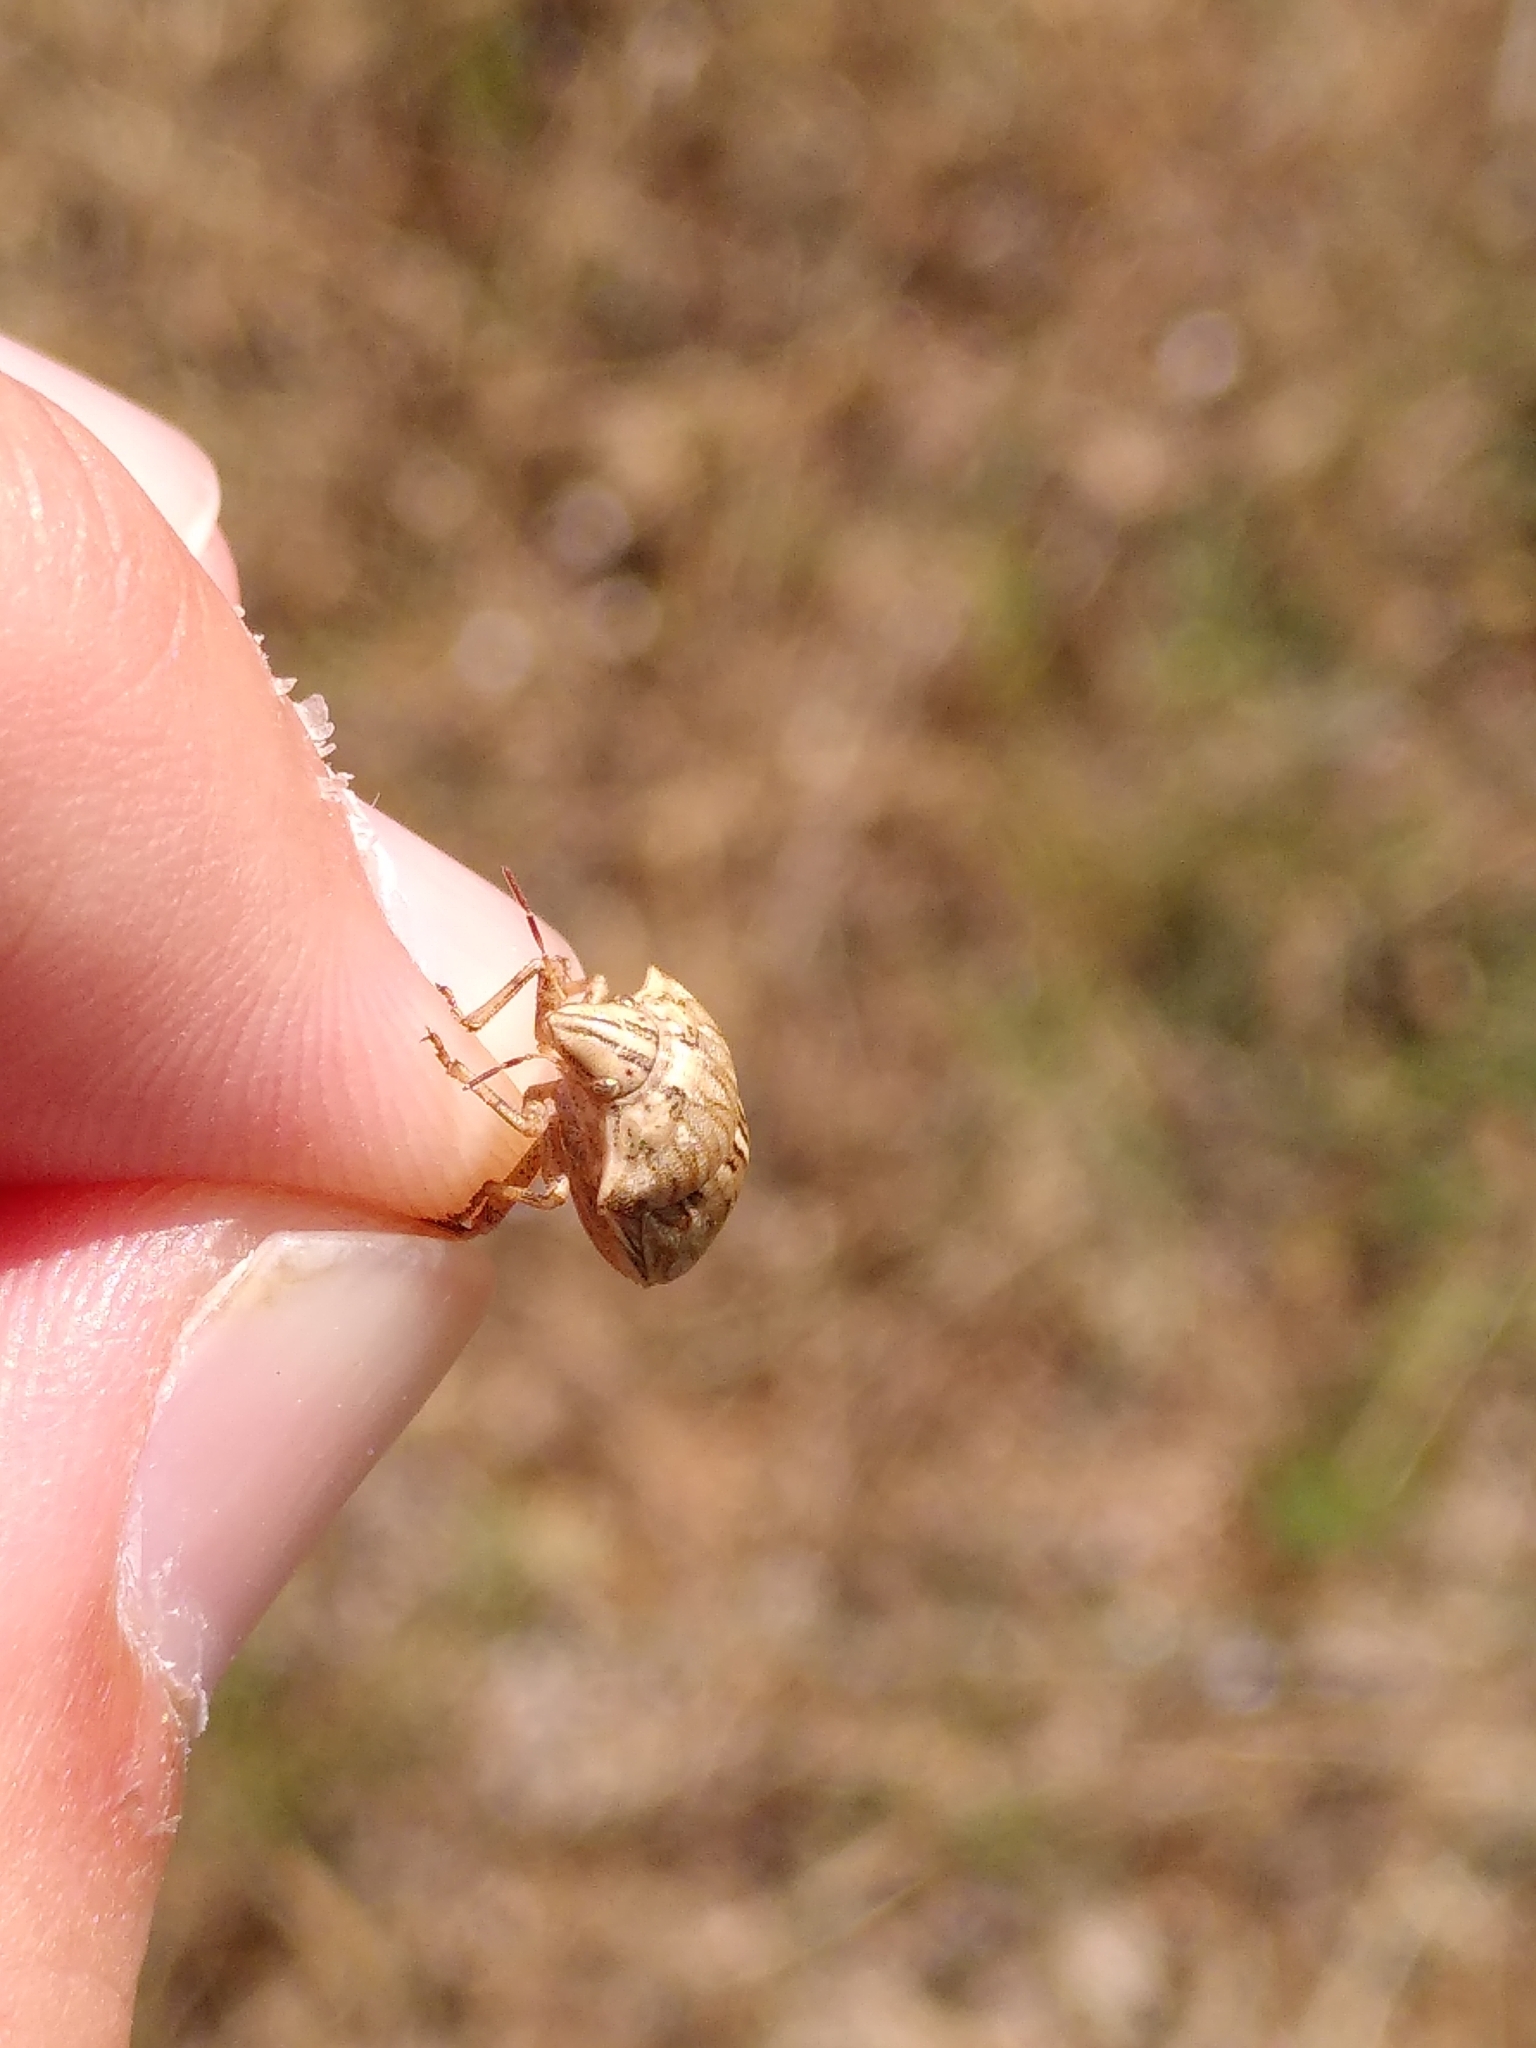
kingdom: Animalia
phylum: Arthropoda
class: Insecta
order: Hemiptera
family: Scutelleridae
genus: Odontotarsus
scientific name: Odontotarsus robustus
